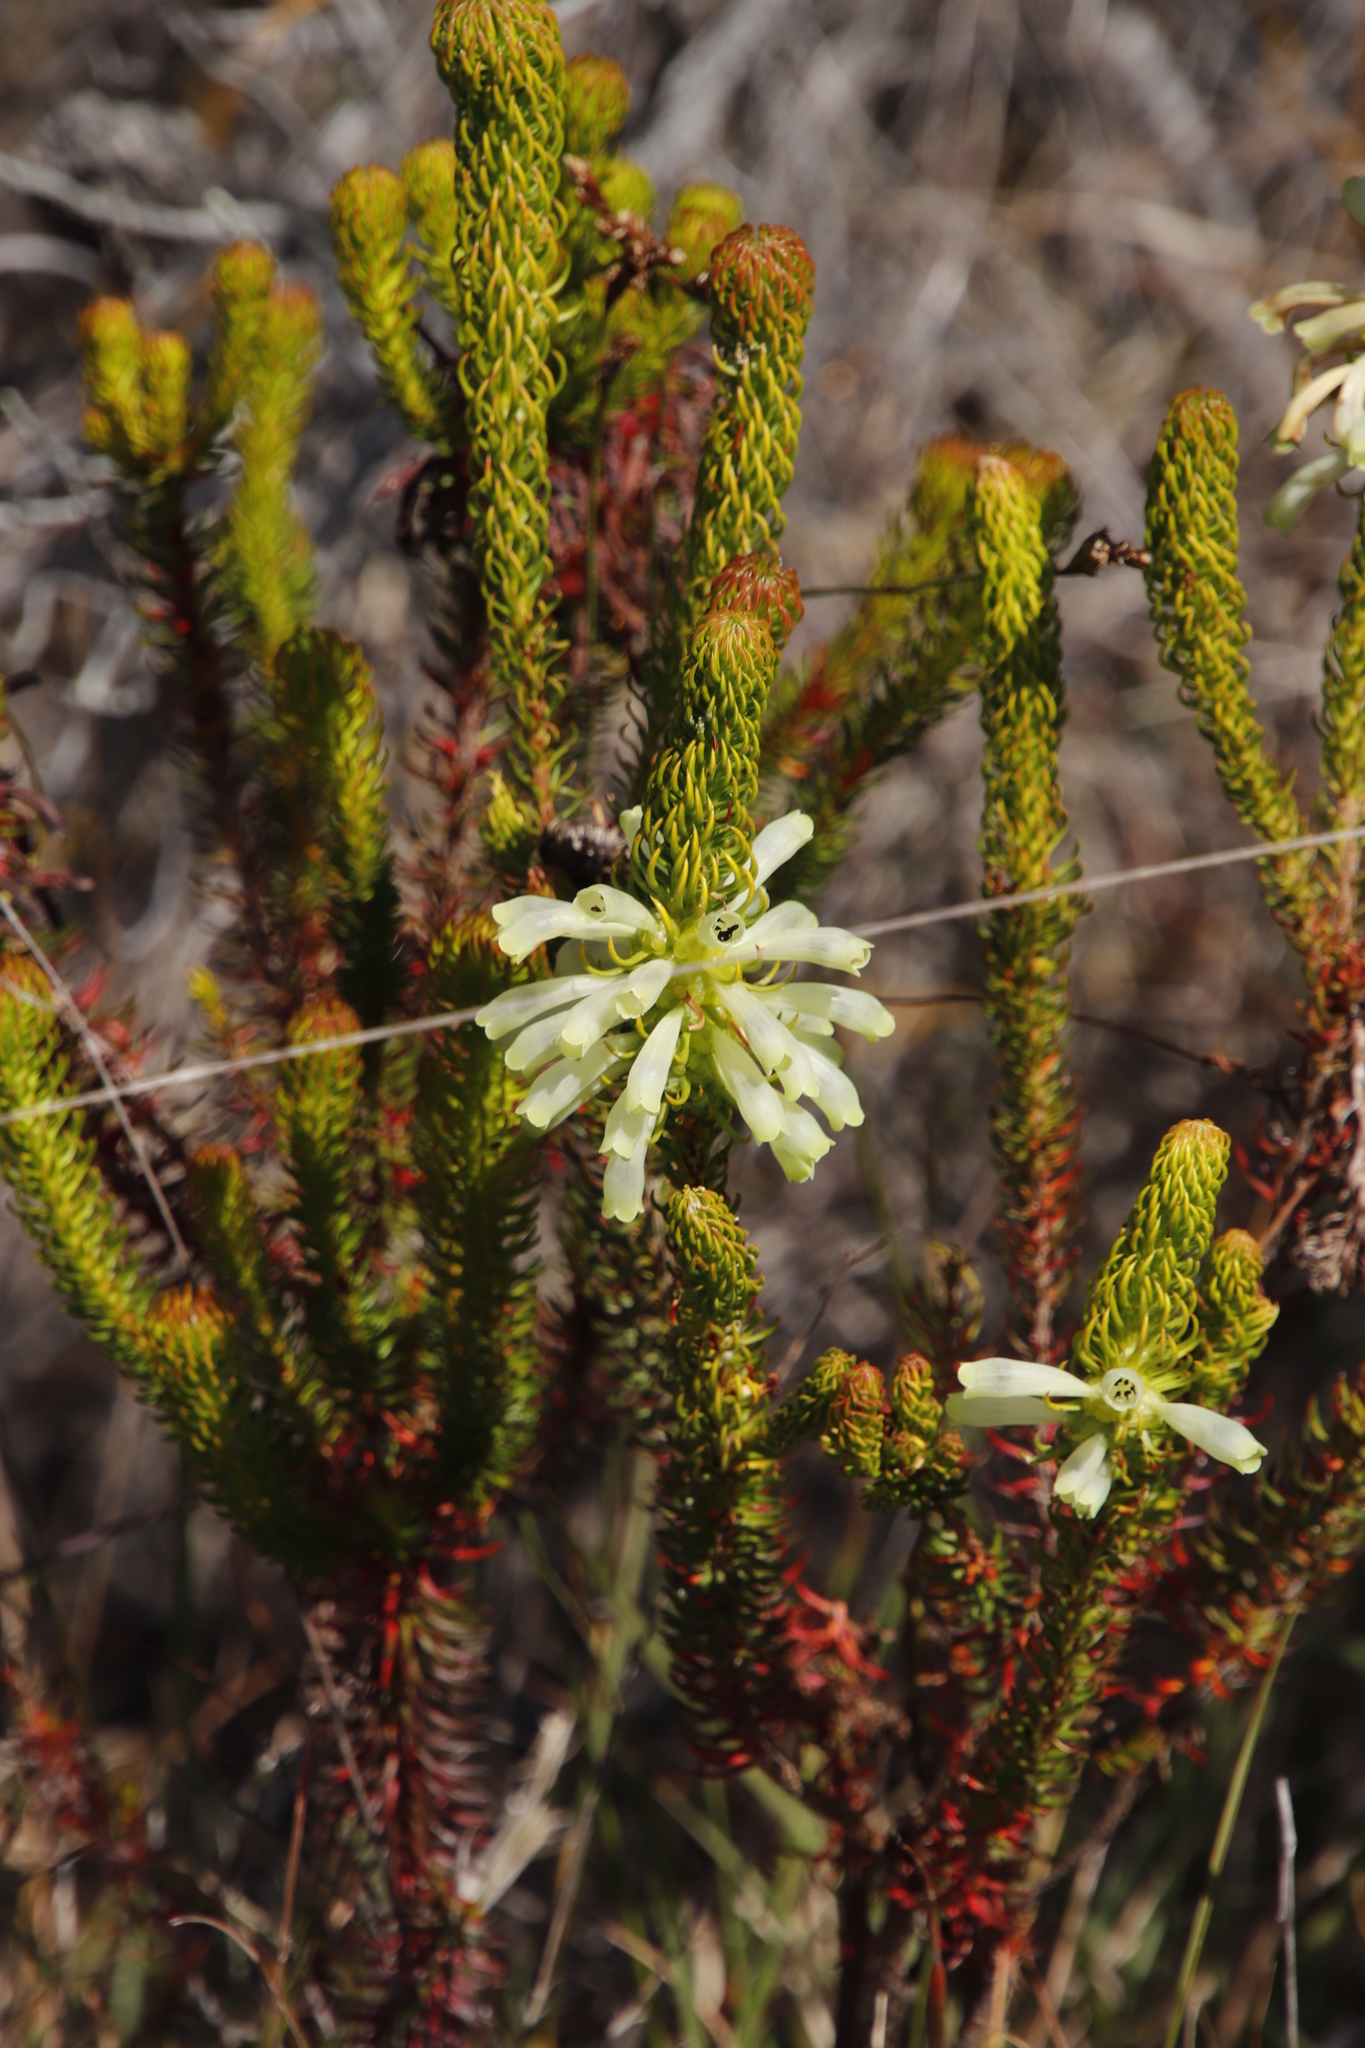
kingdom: Plantae
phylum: Tracheophyta
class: Magnoliopsida
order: Ericales
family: Ericaceae
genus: Erica
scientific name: Erica sessiliflora
